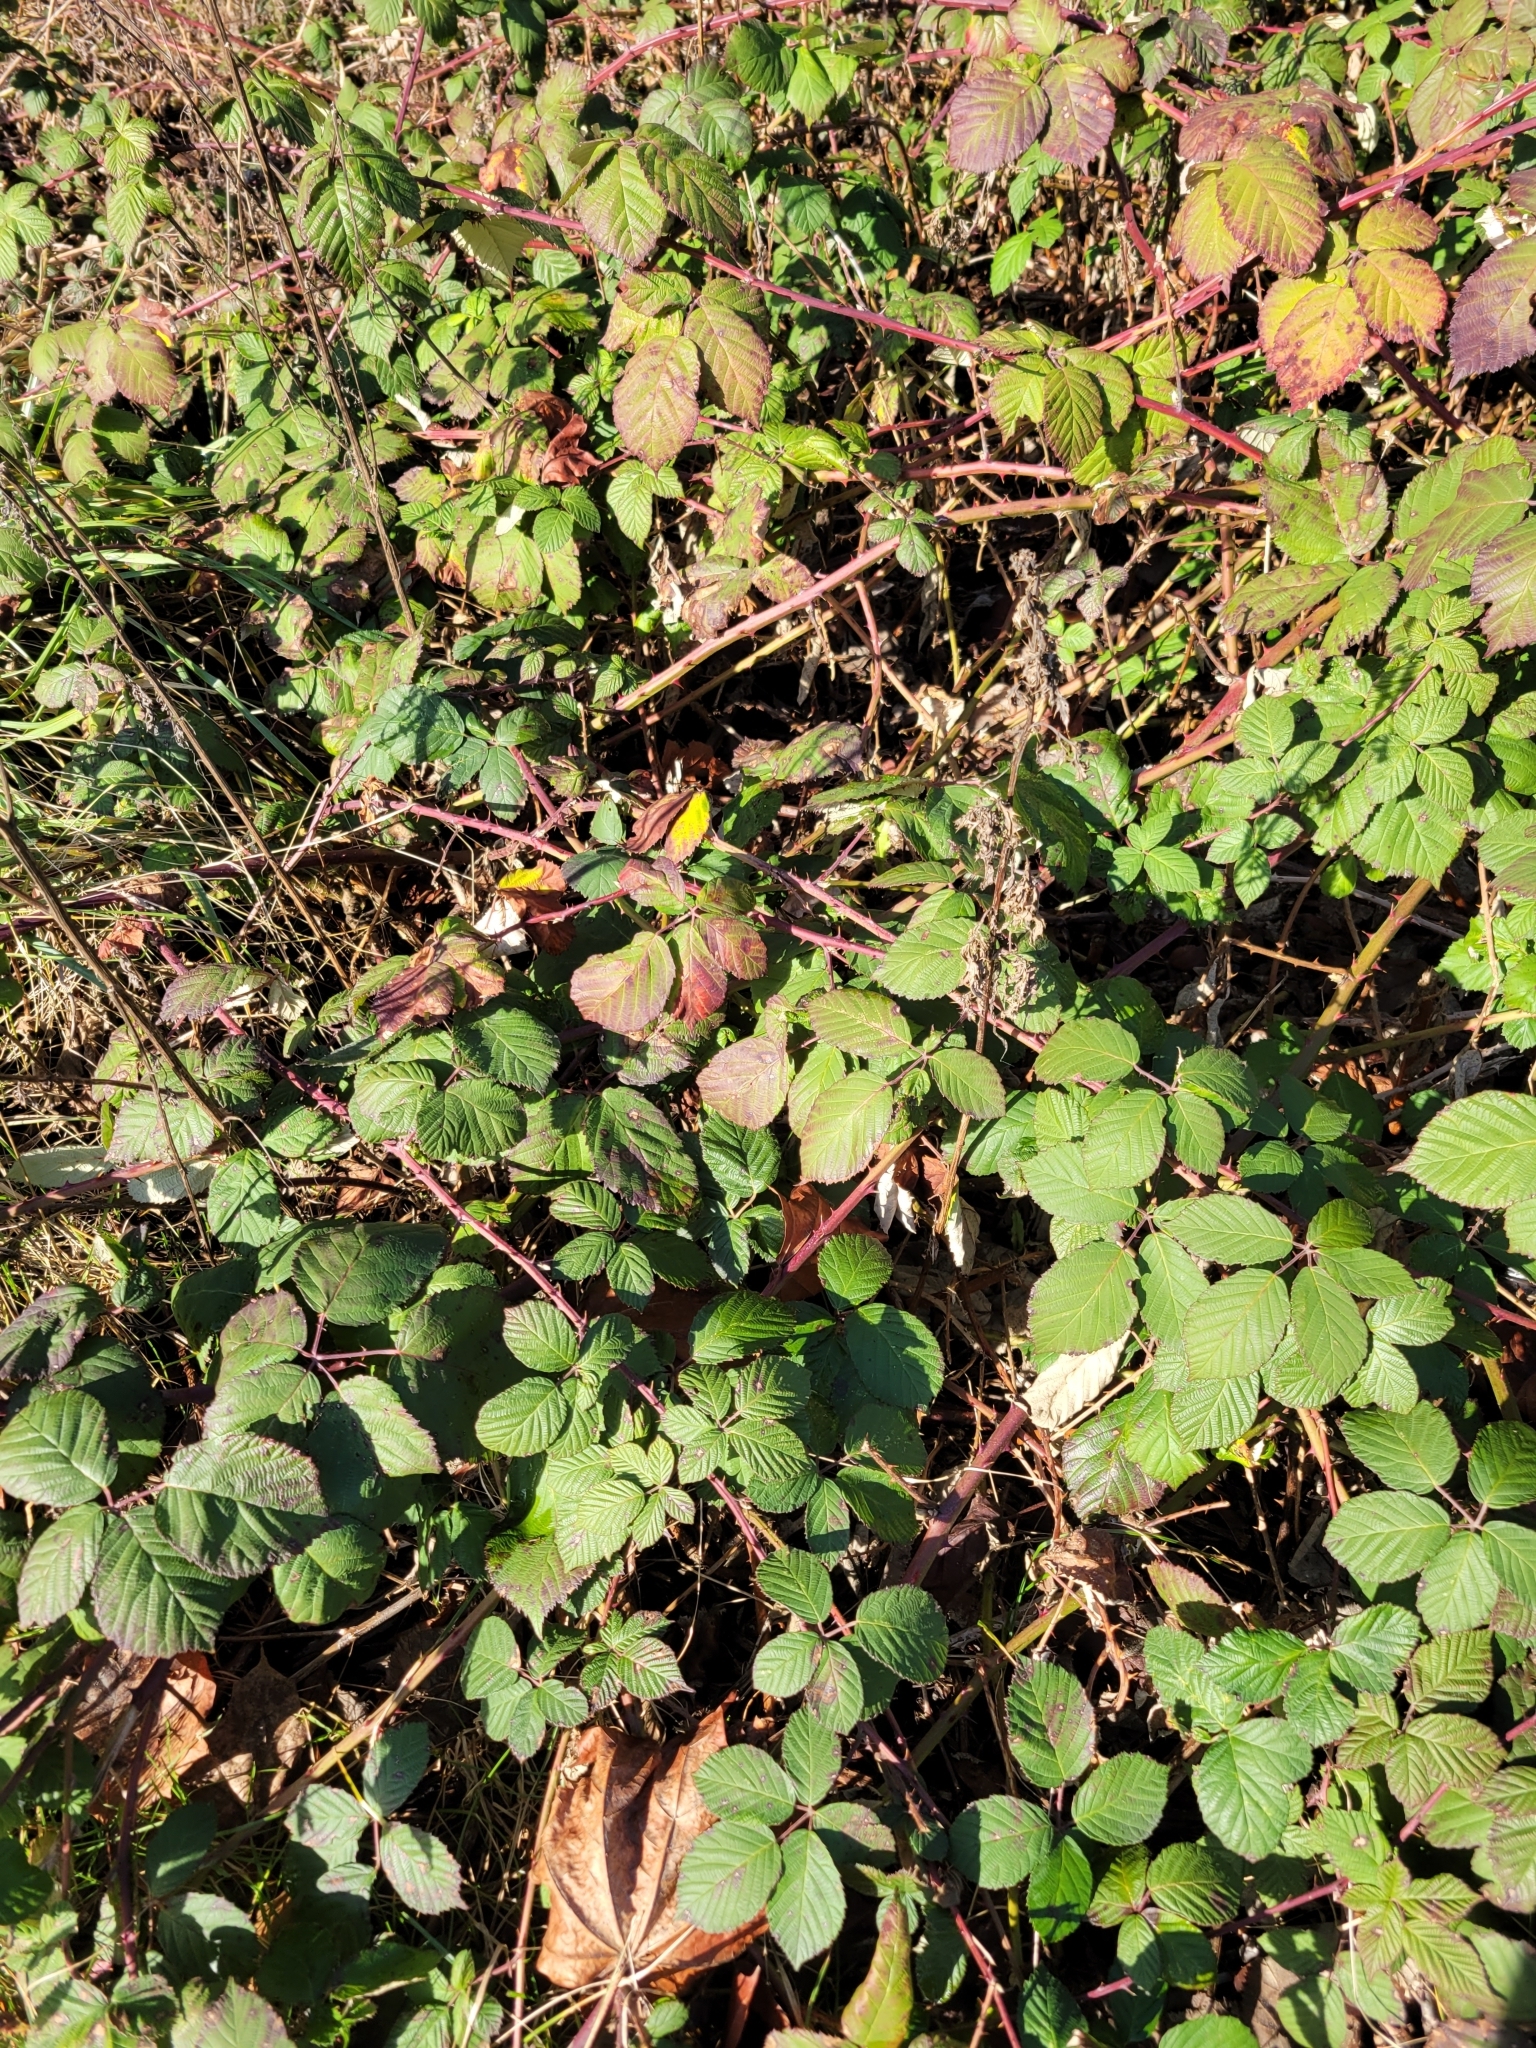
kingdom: Plantae
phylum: Tracheophyta
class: Magnoliopsida
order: Rosales
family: Rosaceae
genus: Rubus
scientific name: Rubus armeniacus
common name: Himalayan blackberry
